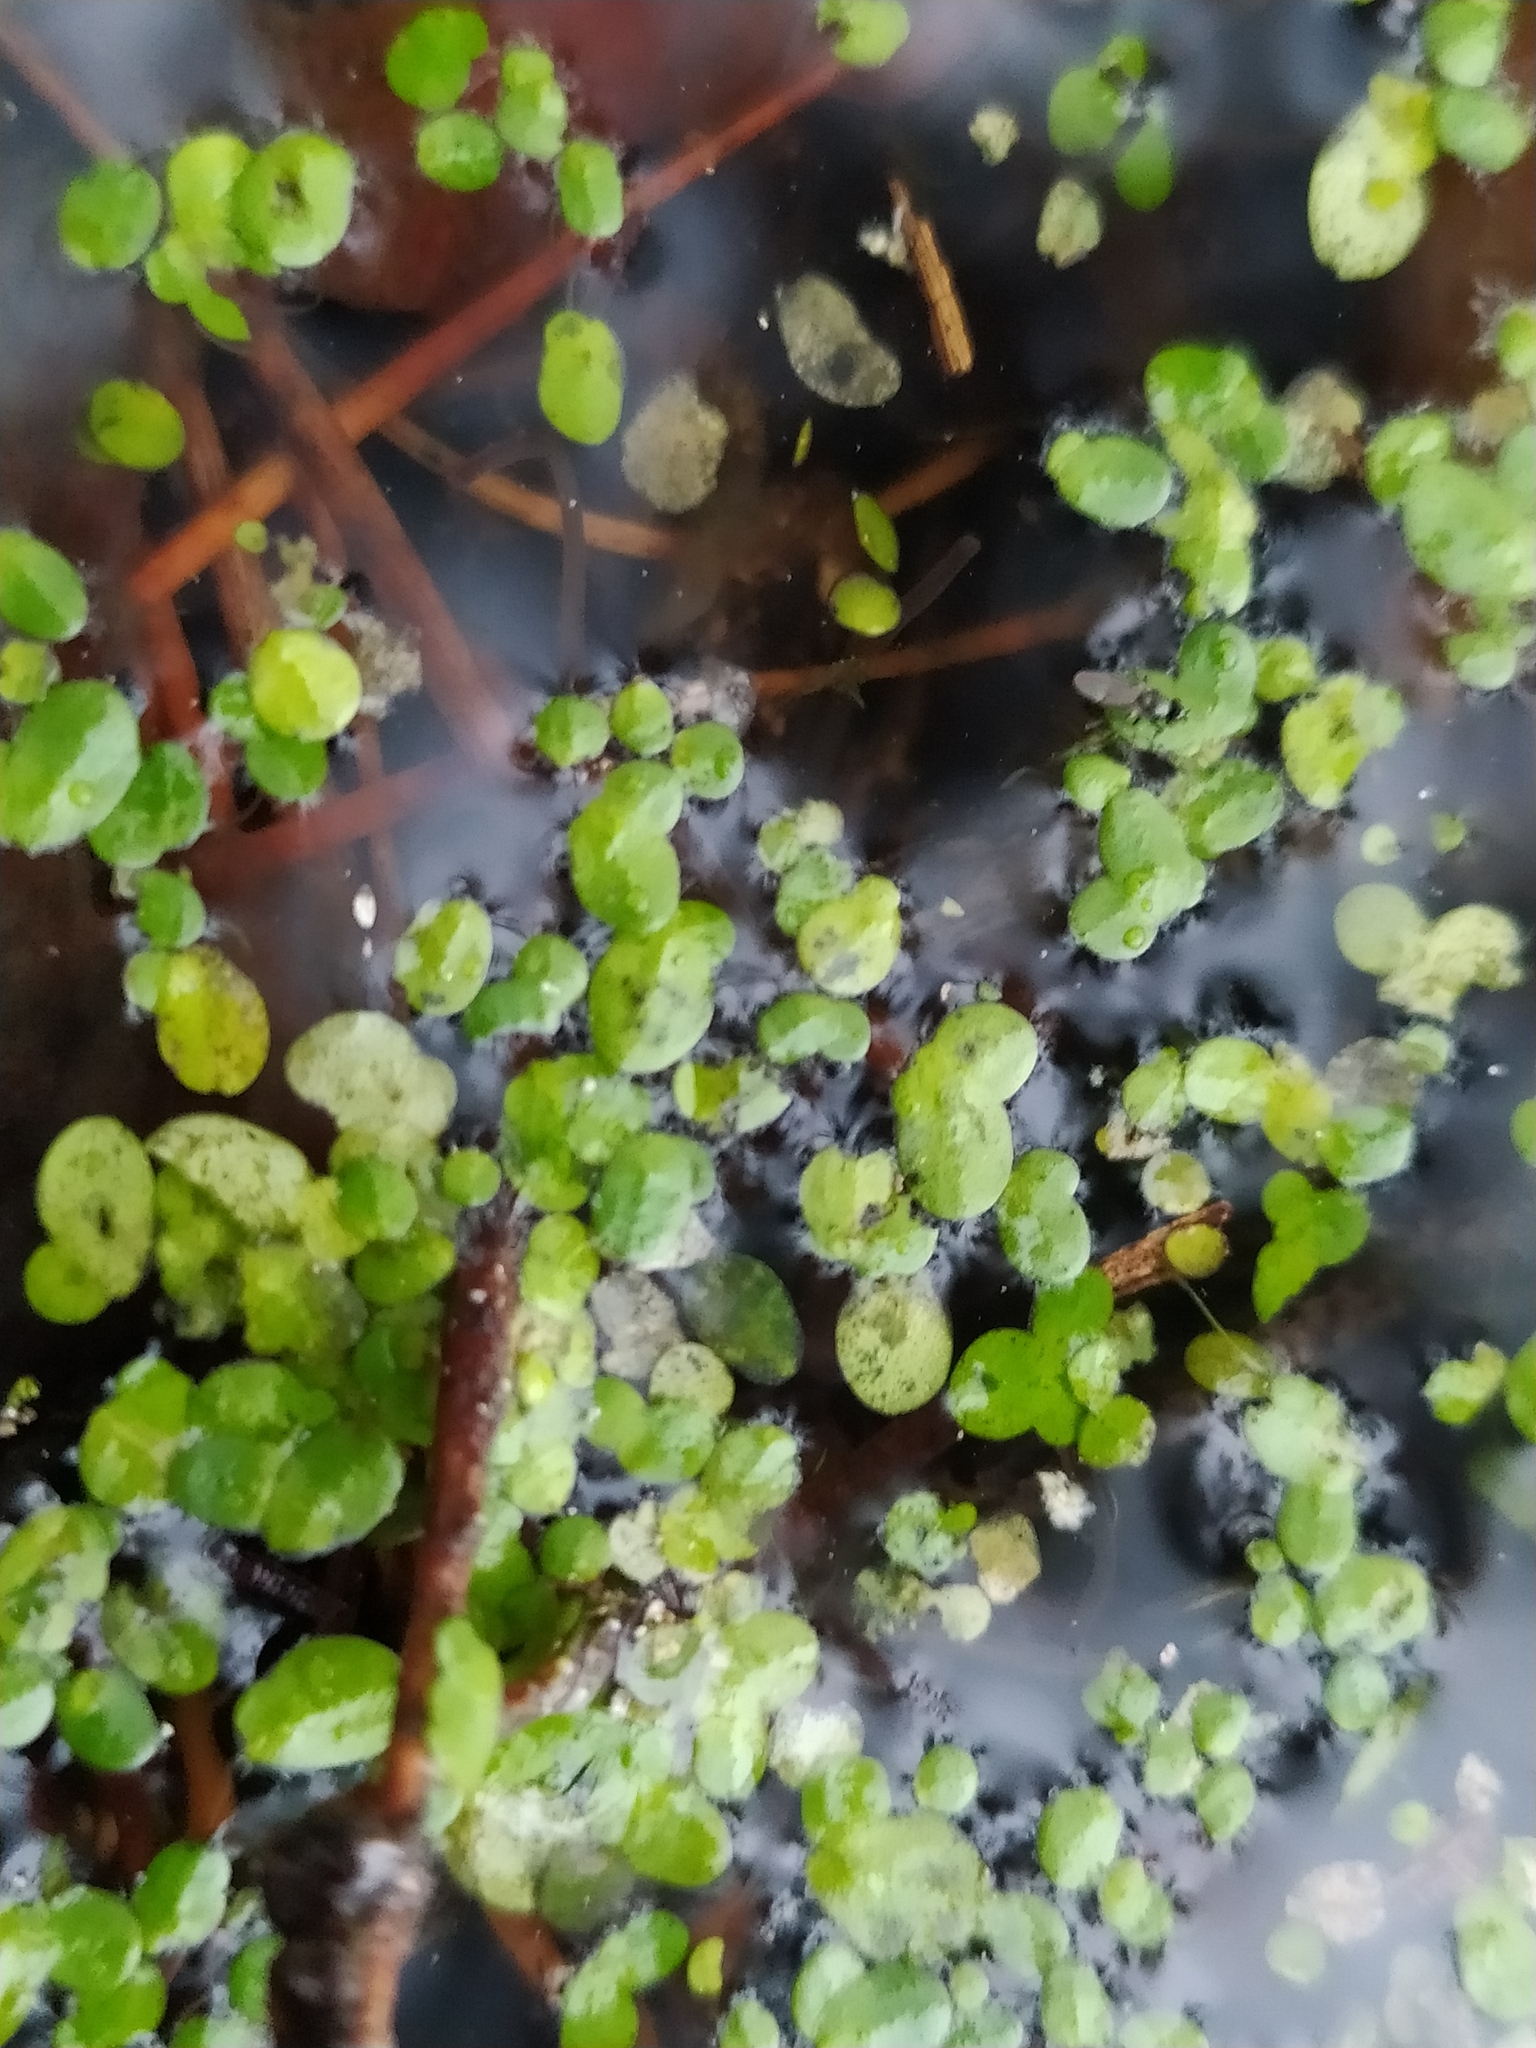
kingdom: Plantae
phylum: Tracheophyta
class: Liliopsida
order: Alismatales
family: Araceae
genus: Lemna
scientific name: Lemna minor
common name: Common duckweed
